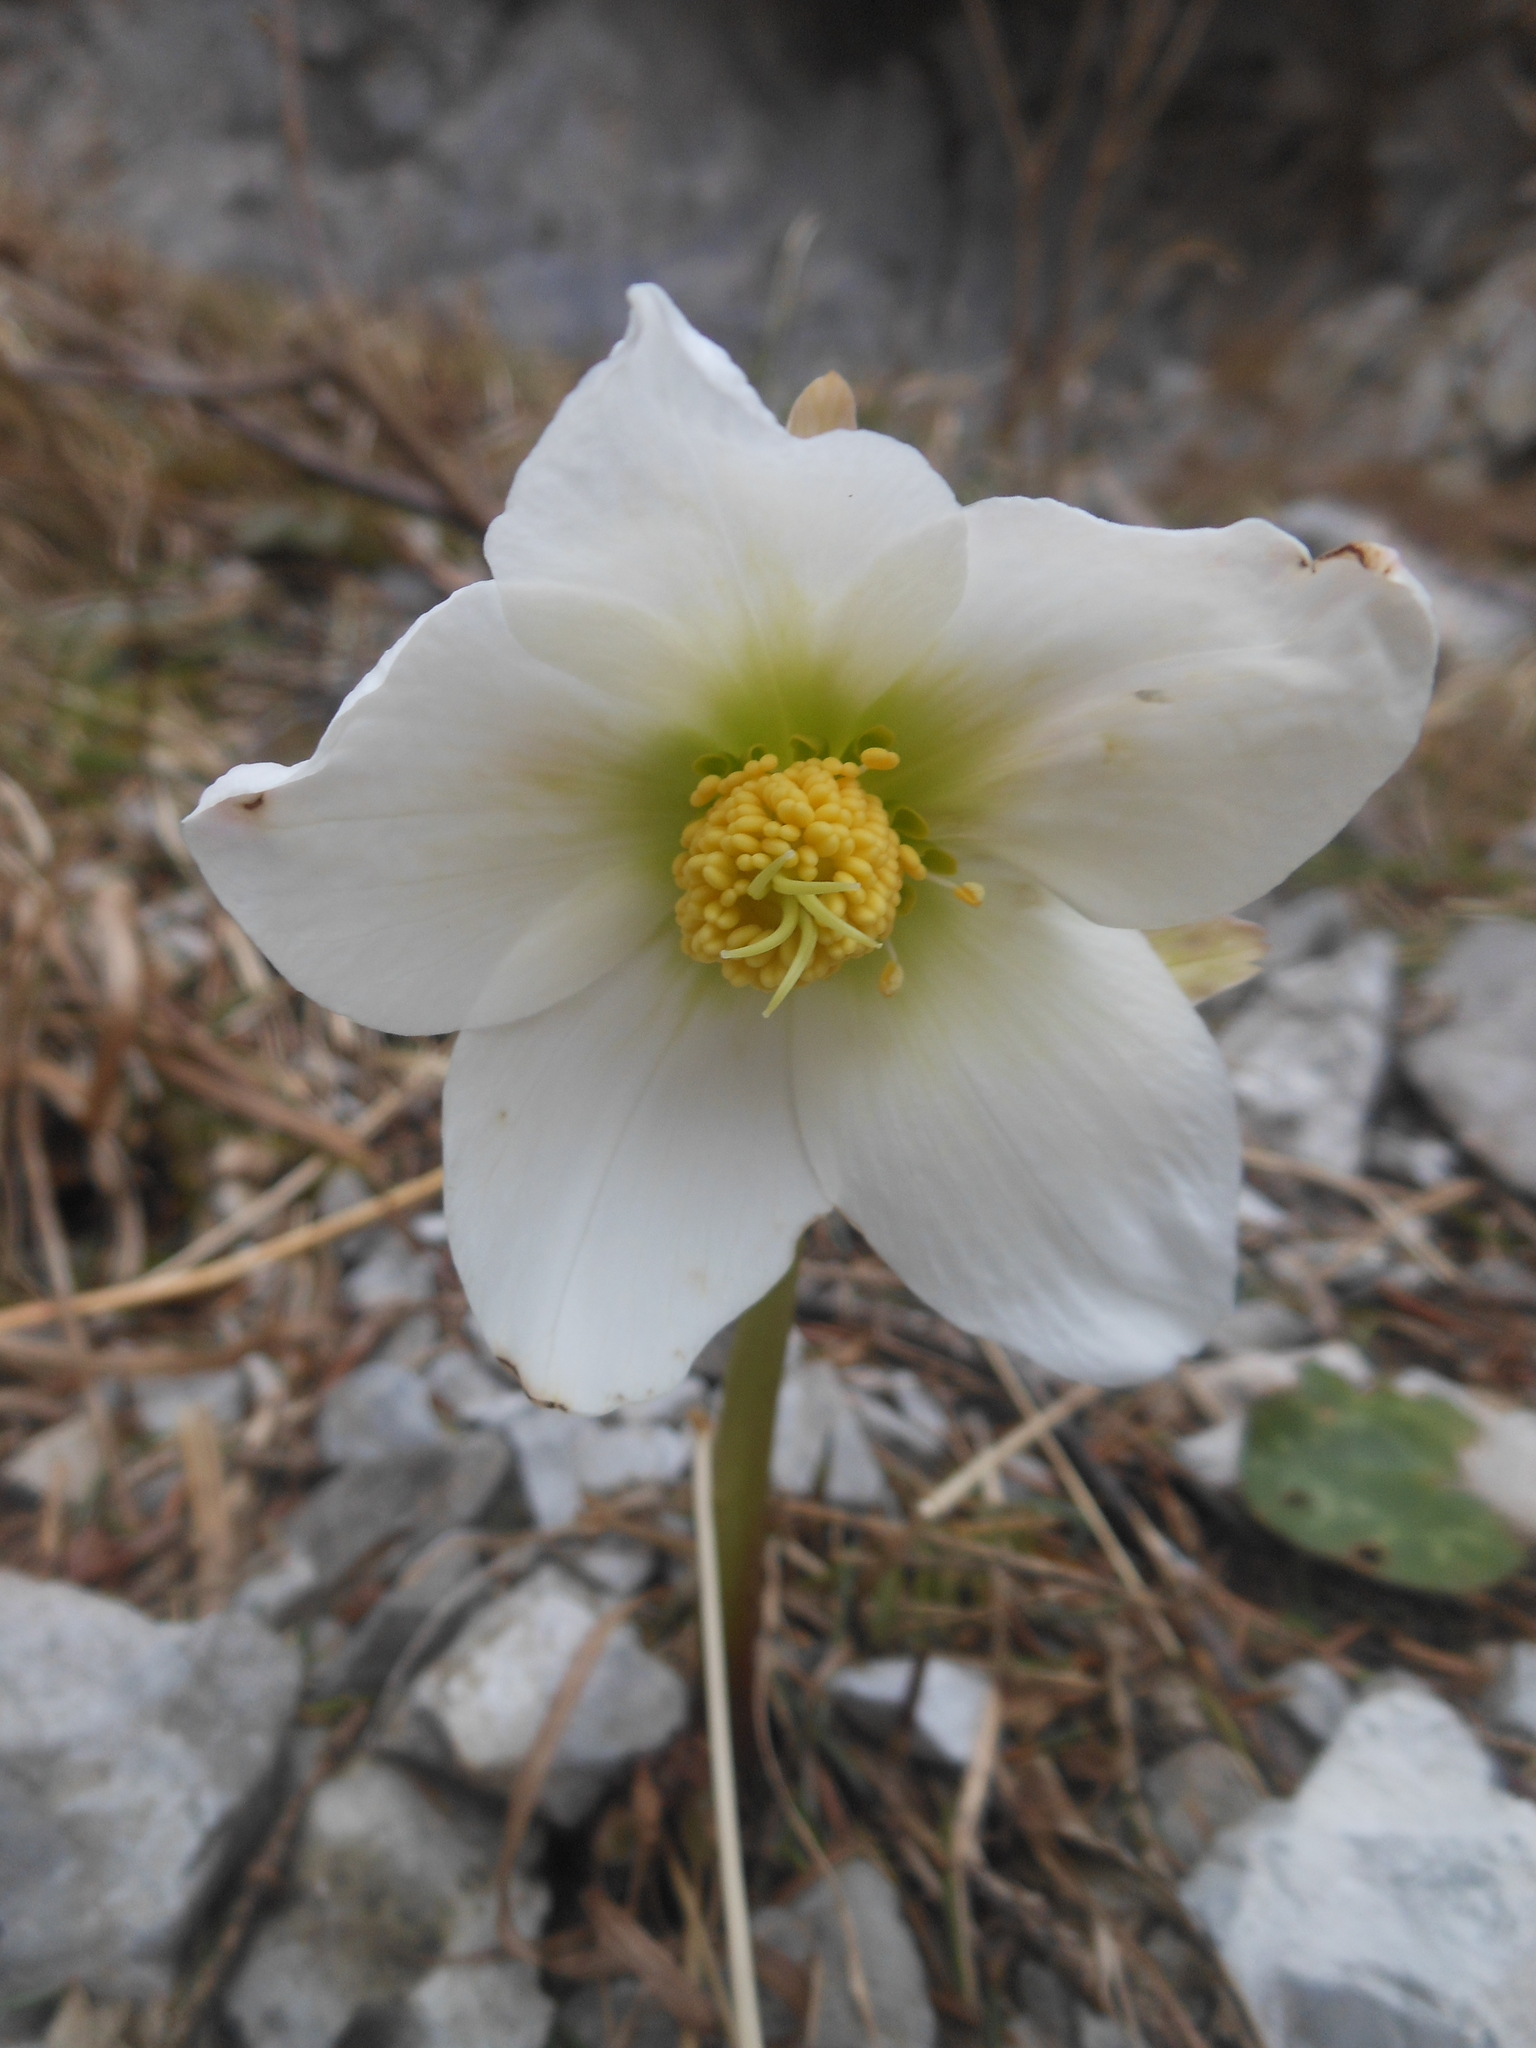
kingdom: Plantae
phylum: Tracheophyta
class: Magnoliopsida
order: Ranunculales
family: Ranunculaceae
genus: Helleborus
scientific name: Helleborus niger
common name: Black hellebore
